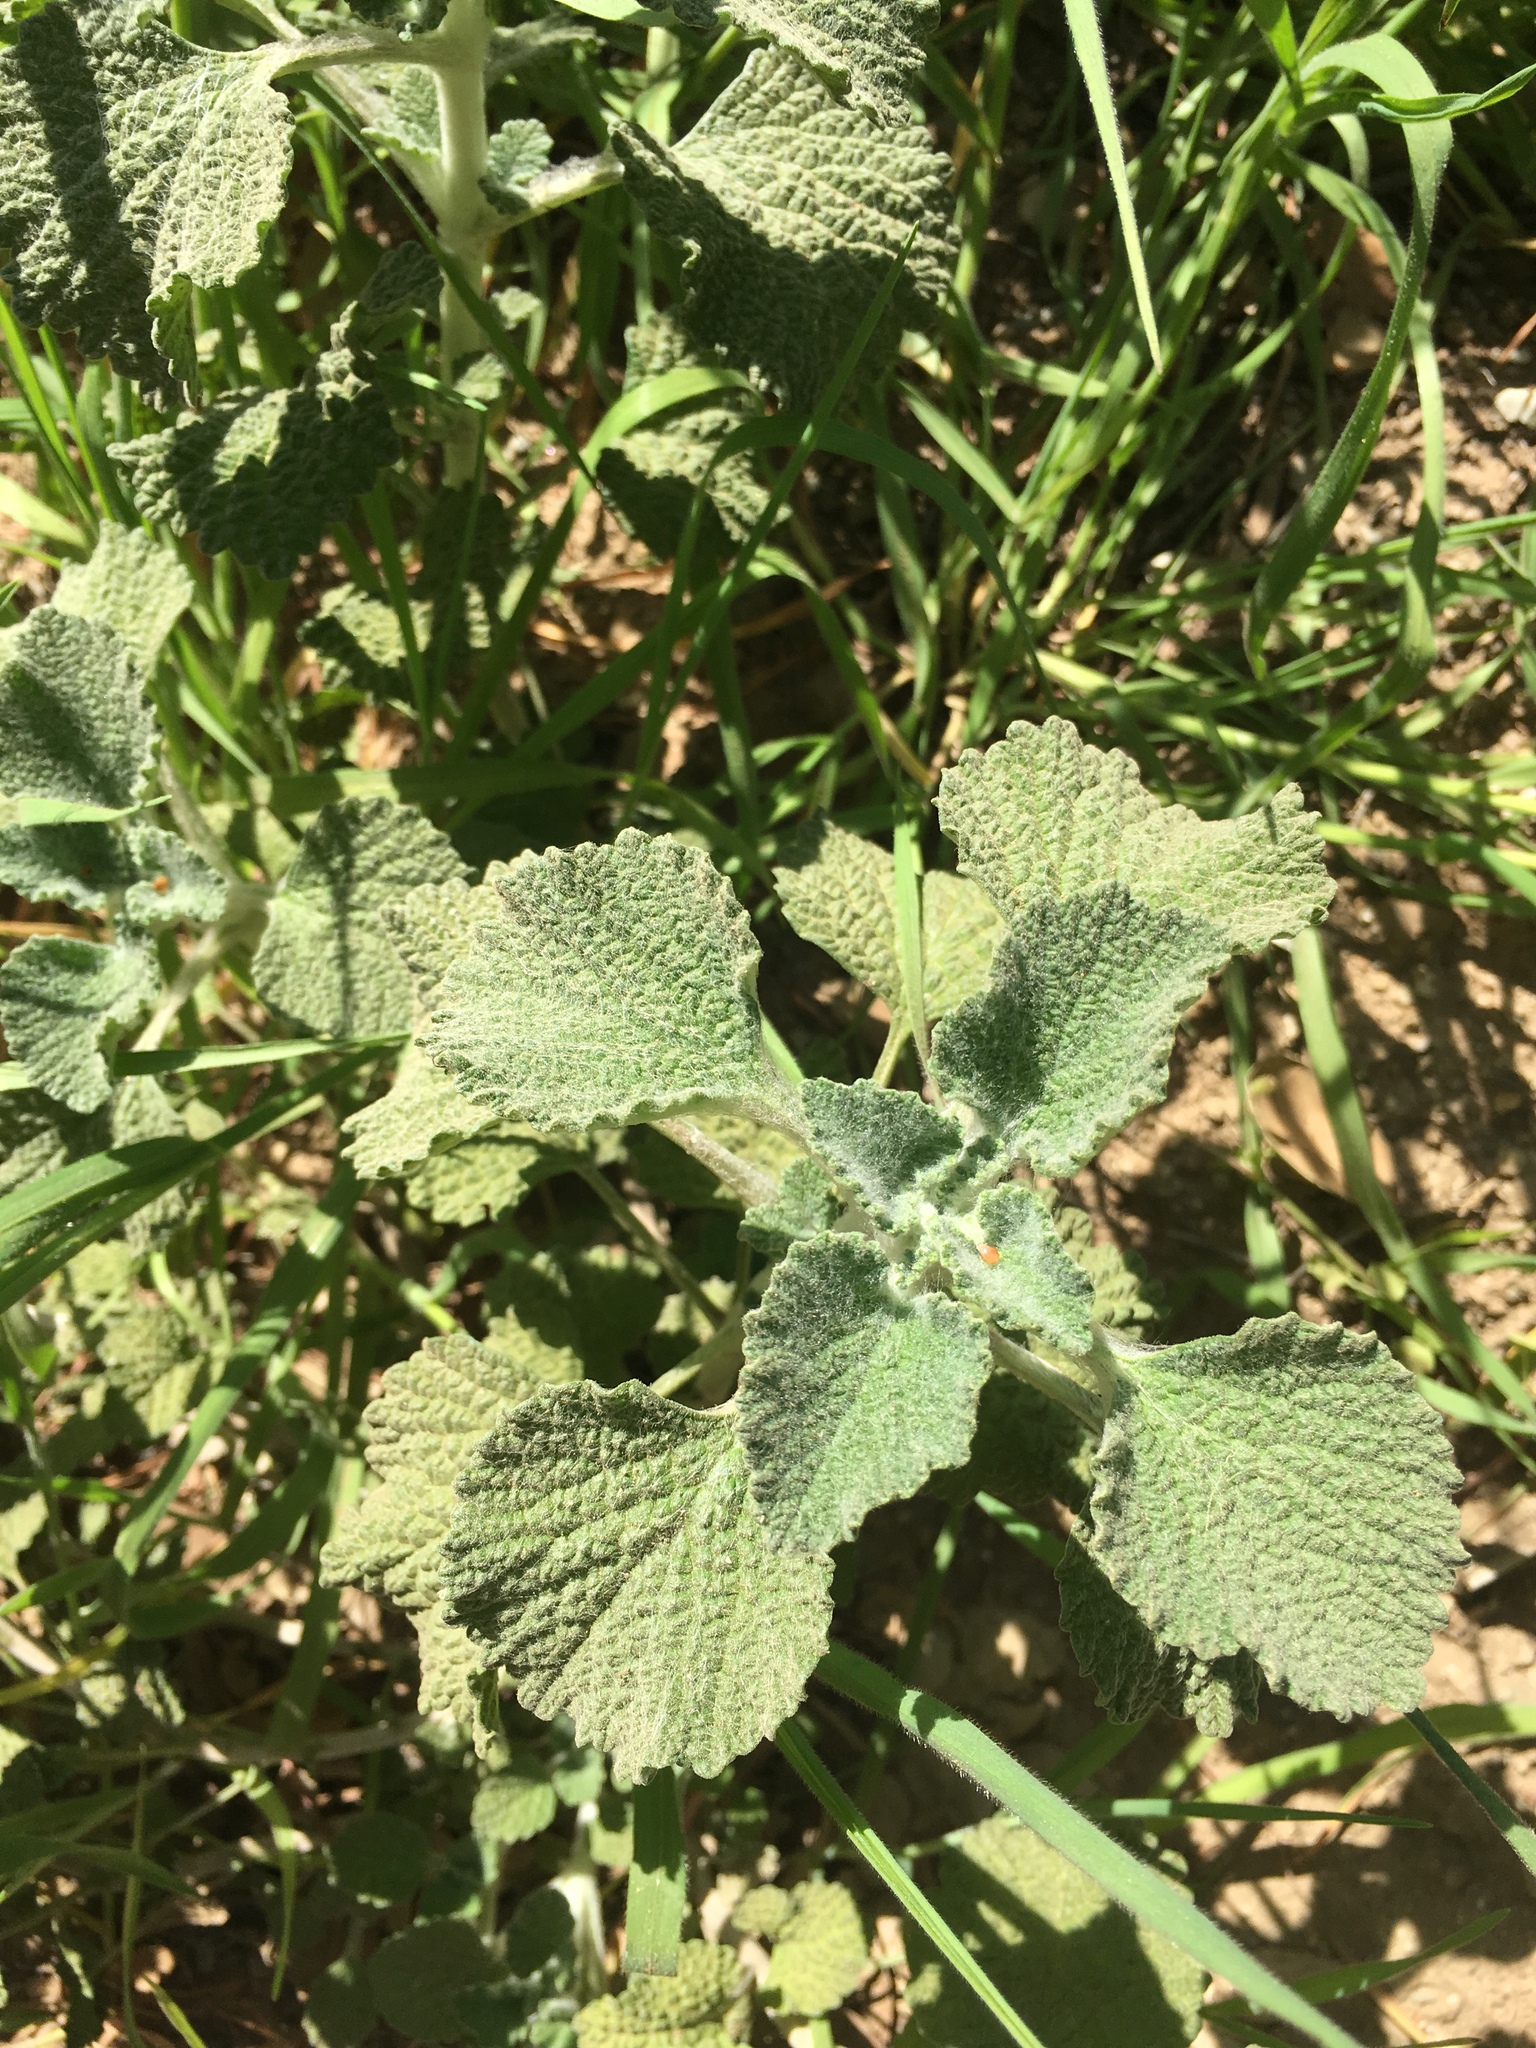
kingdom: Plantae
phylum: Tracheophyta
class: Magnoliopsida
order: Lamiales
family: Lamiaceae
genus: Marrubium
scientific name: Marrubium vulgare
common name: Horehound
